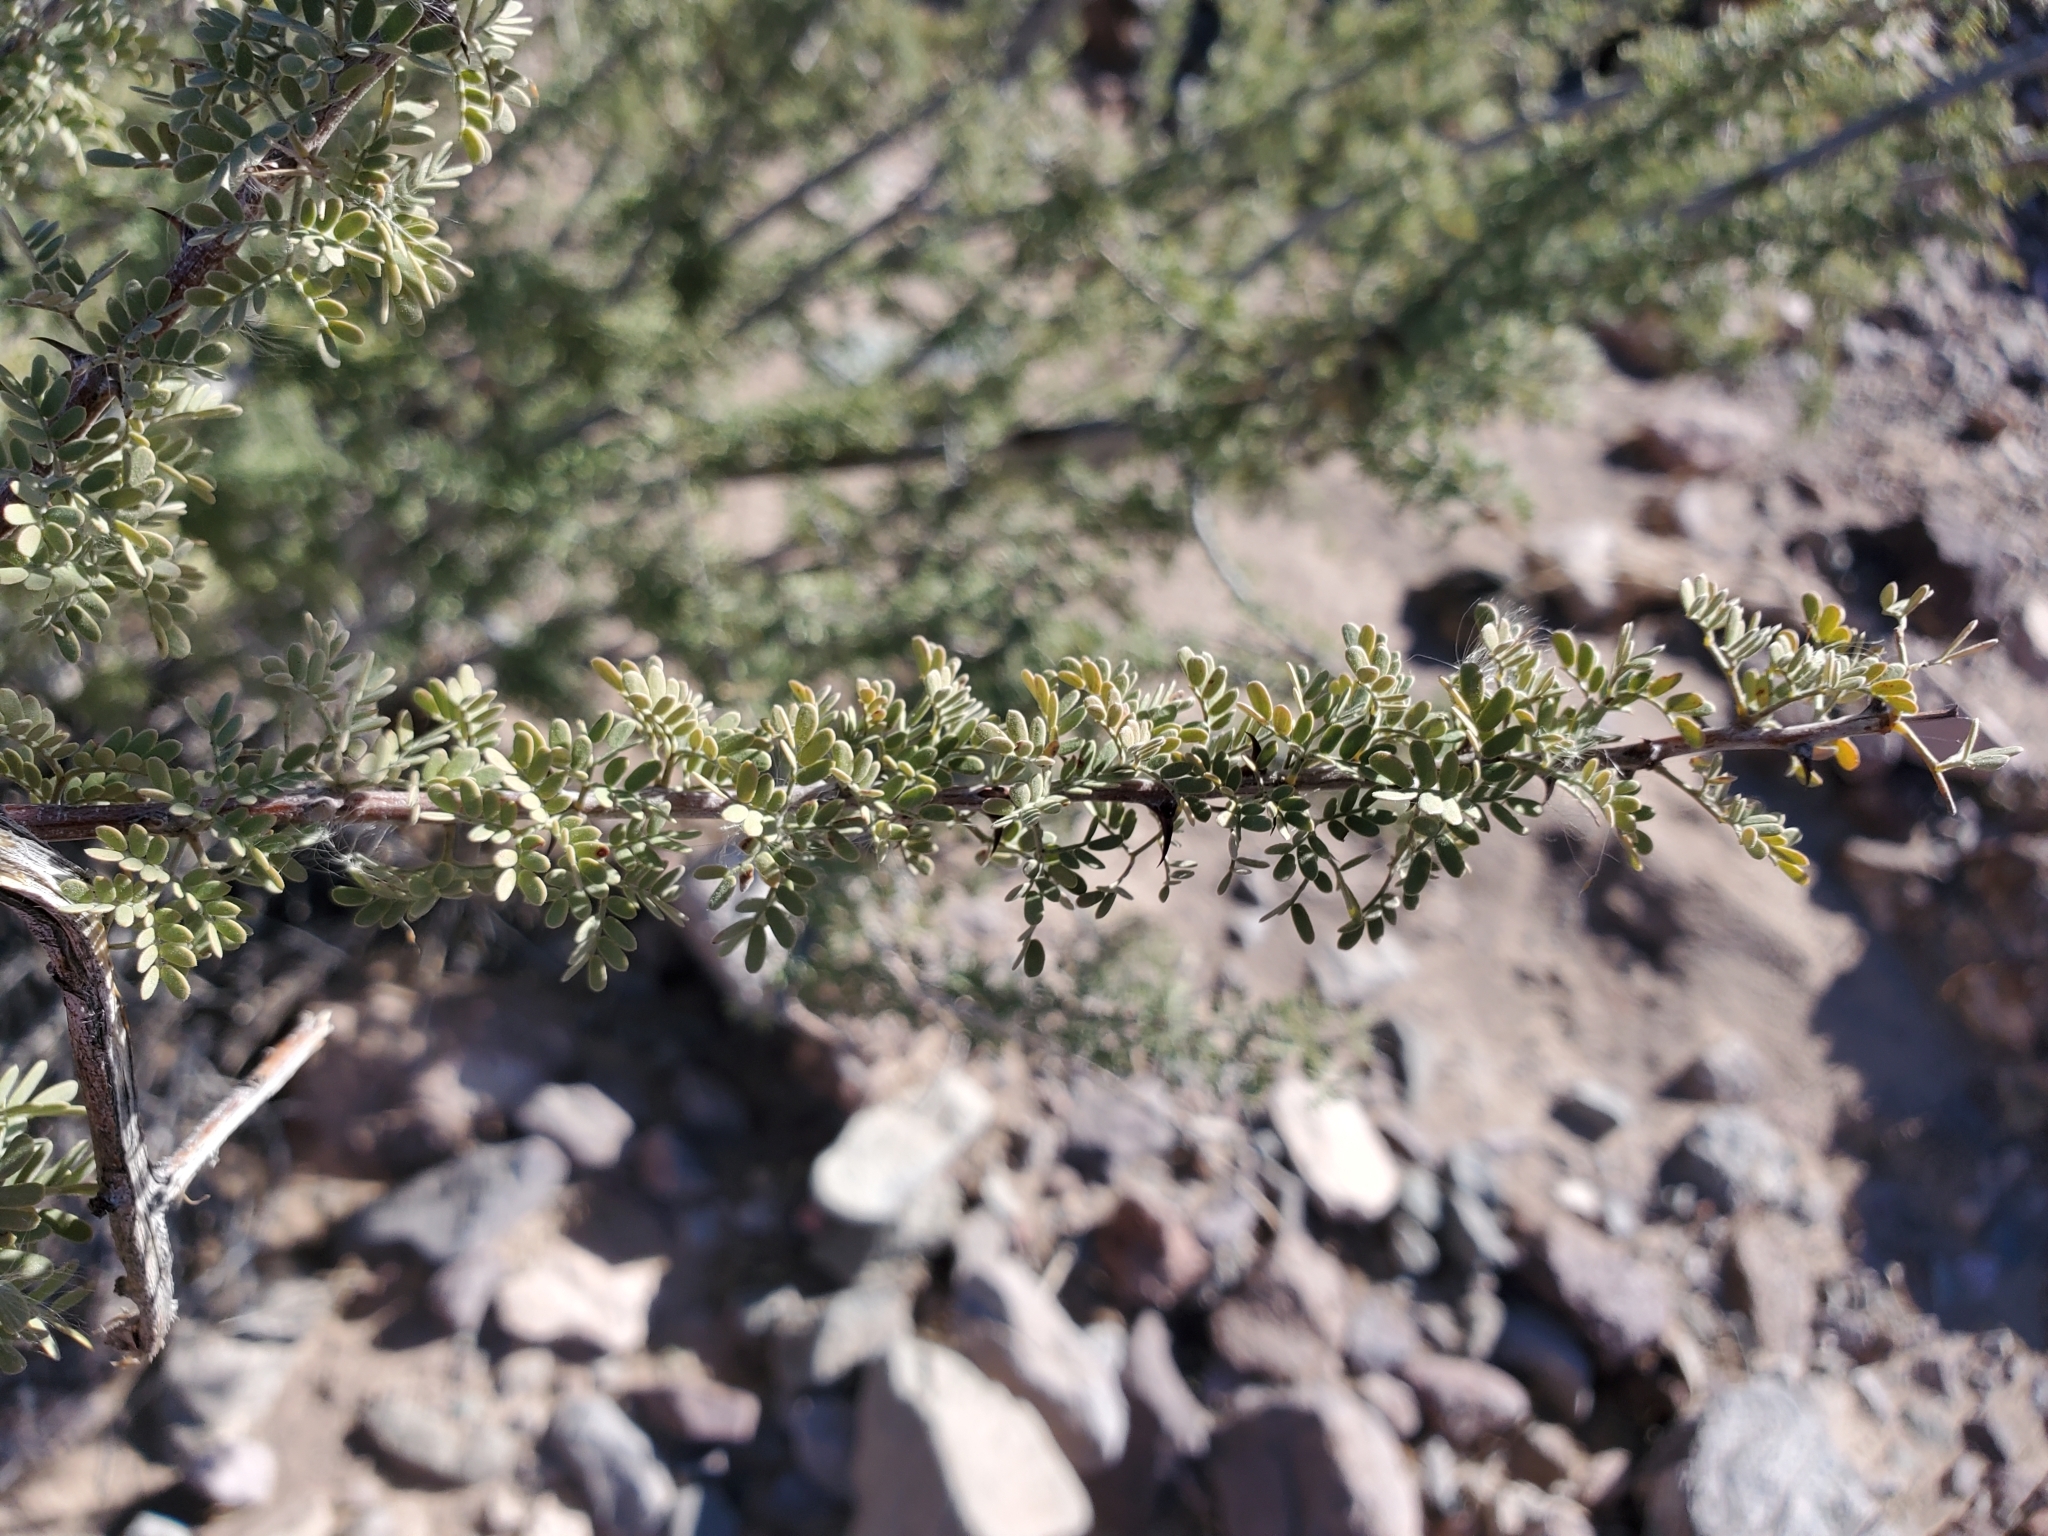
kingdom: Plantae
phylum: Tracheophyta
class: Magnoliopsida
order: Fabales
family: Fabaceae
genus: Senegalia
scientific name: Senegalia greggii
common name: Texas-mimosa
